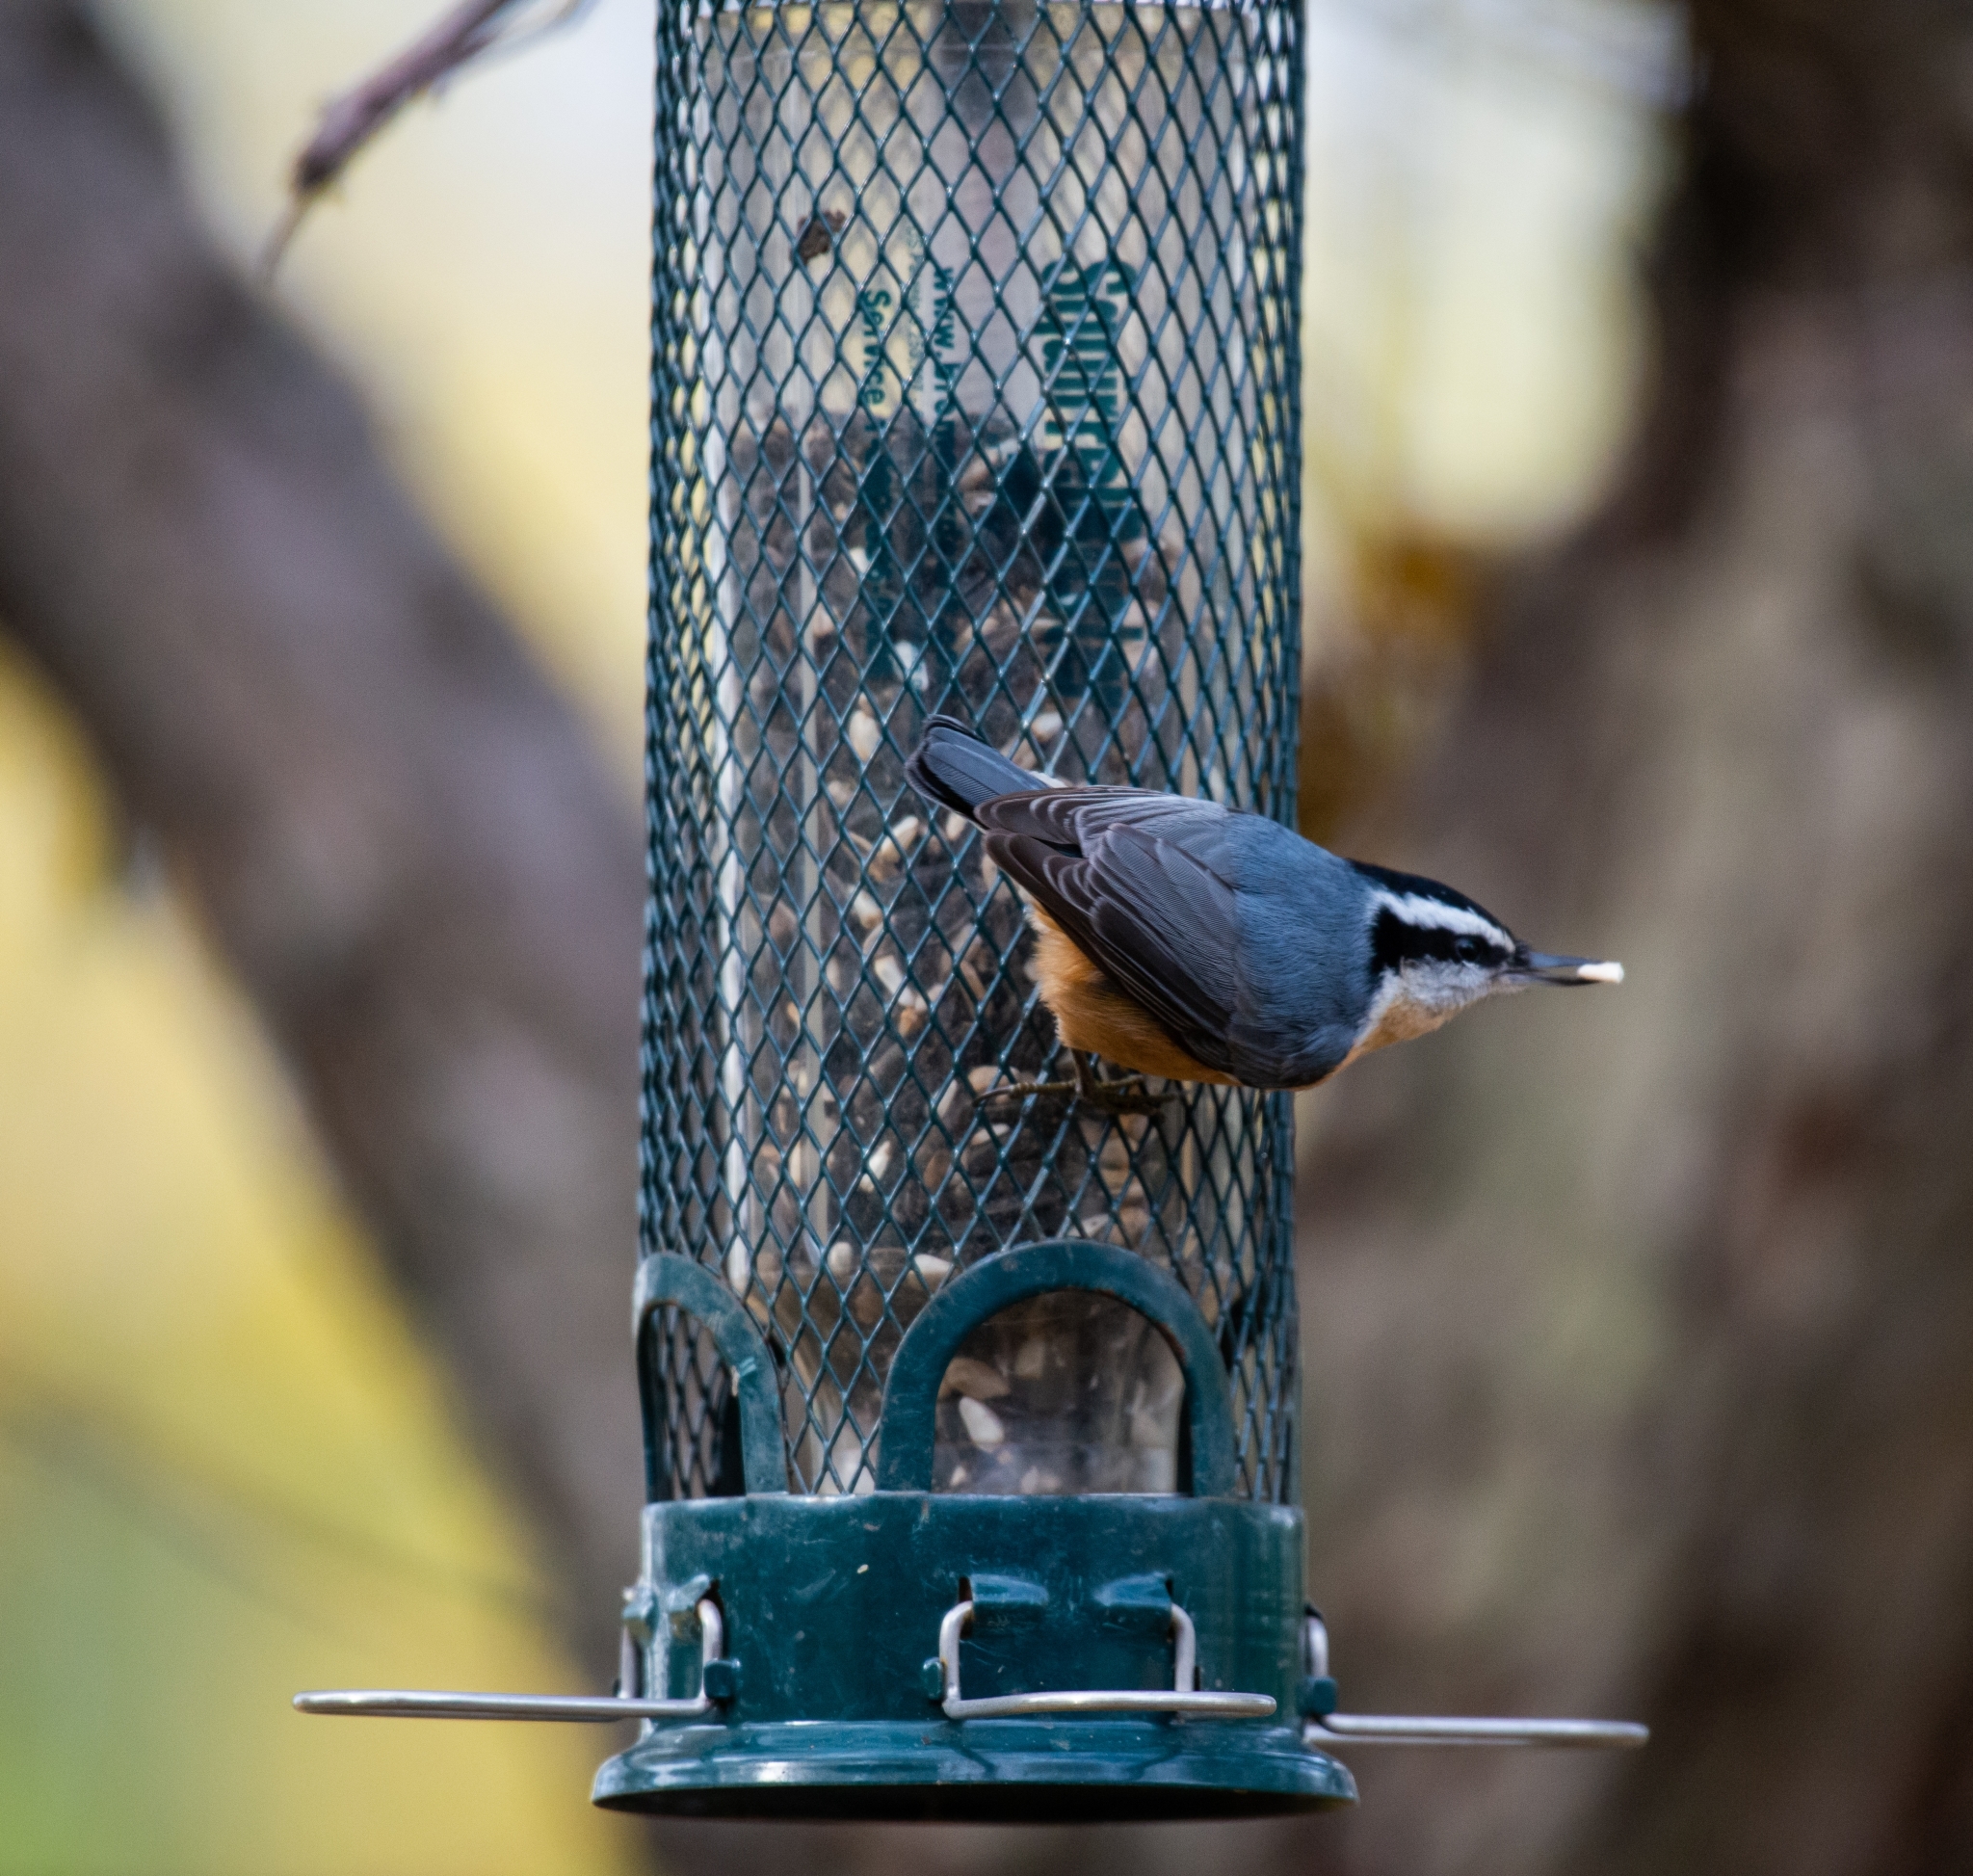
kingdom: Animalia
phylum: Chordata
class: Aves
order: Passeriformes
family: Sittidae
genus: Sitta
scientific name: Sitta canadensis
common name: Red-breasted nuthatch
